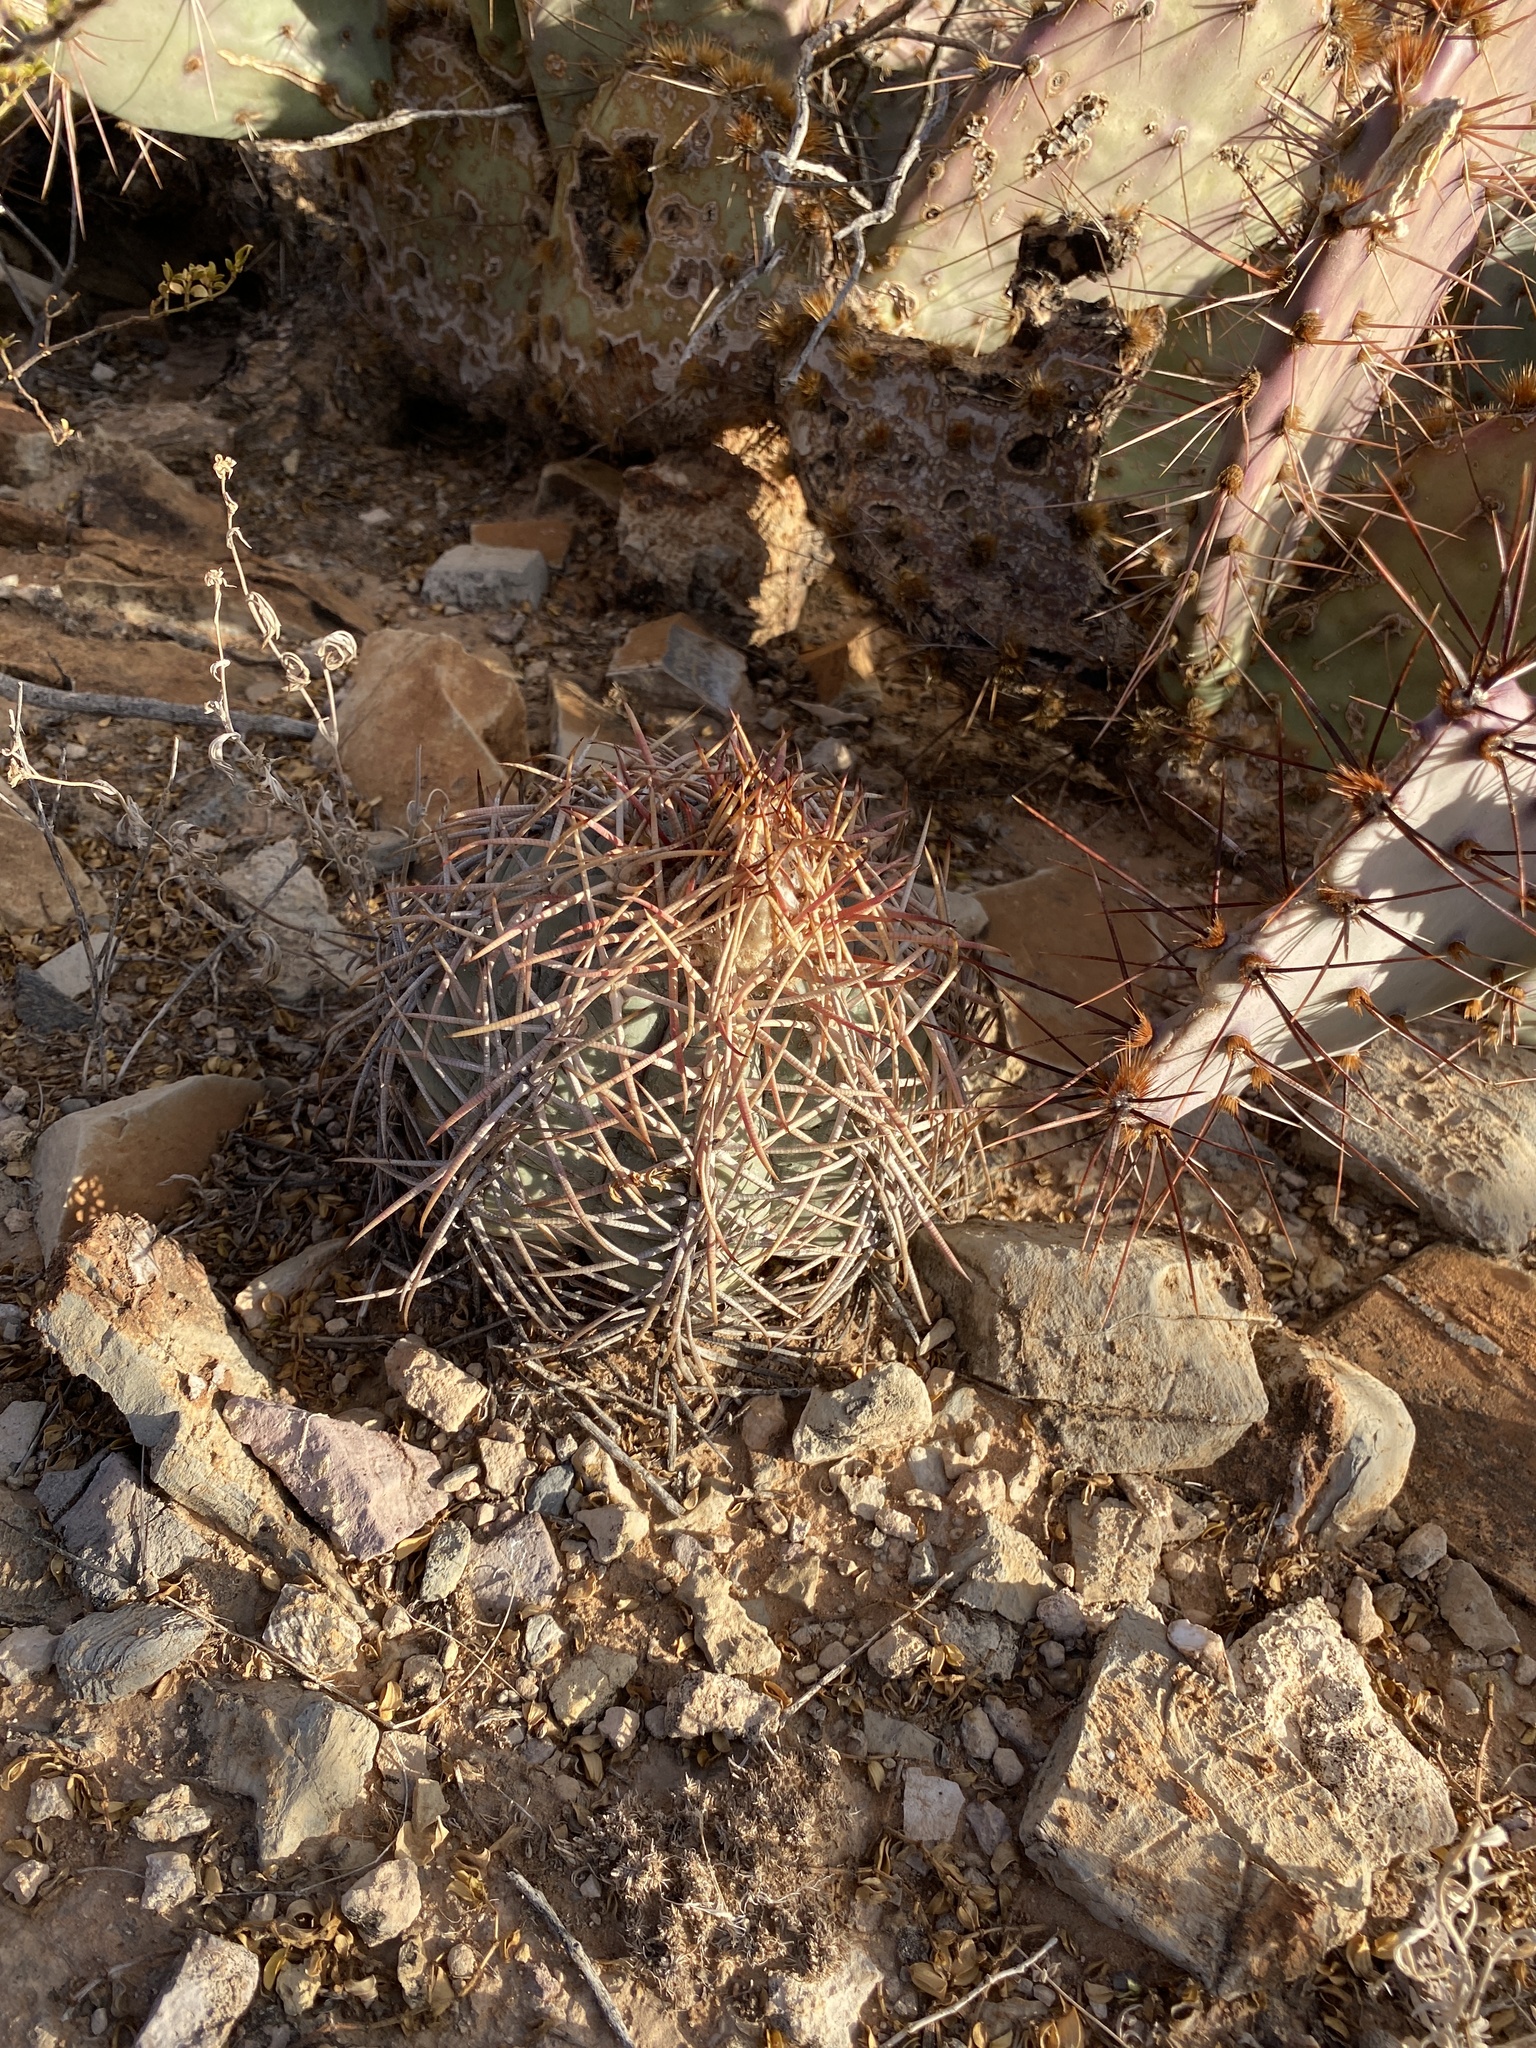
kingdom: Plantae
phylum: Tracheophyta
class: Magnoliopsida
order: Caryophyllales
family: Cactaceae
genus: Echinocactus
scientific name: Echinocactus horizonthalonius
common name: Devilshead
